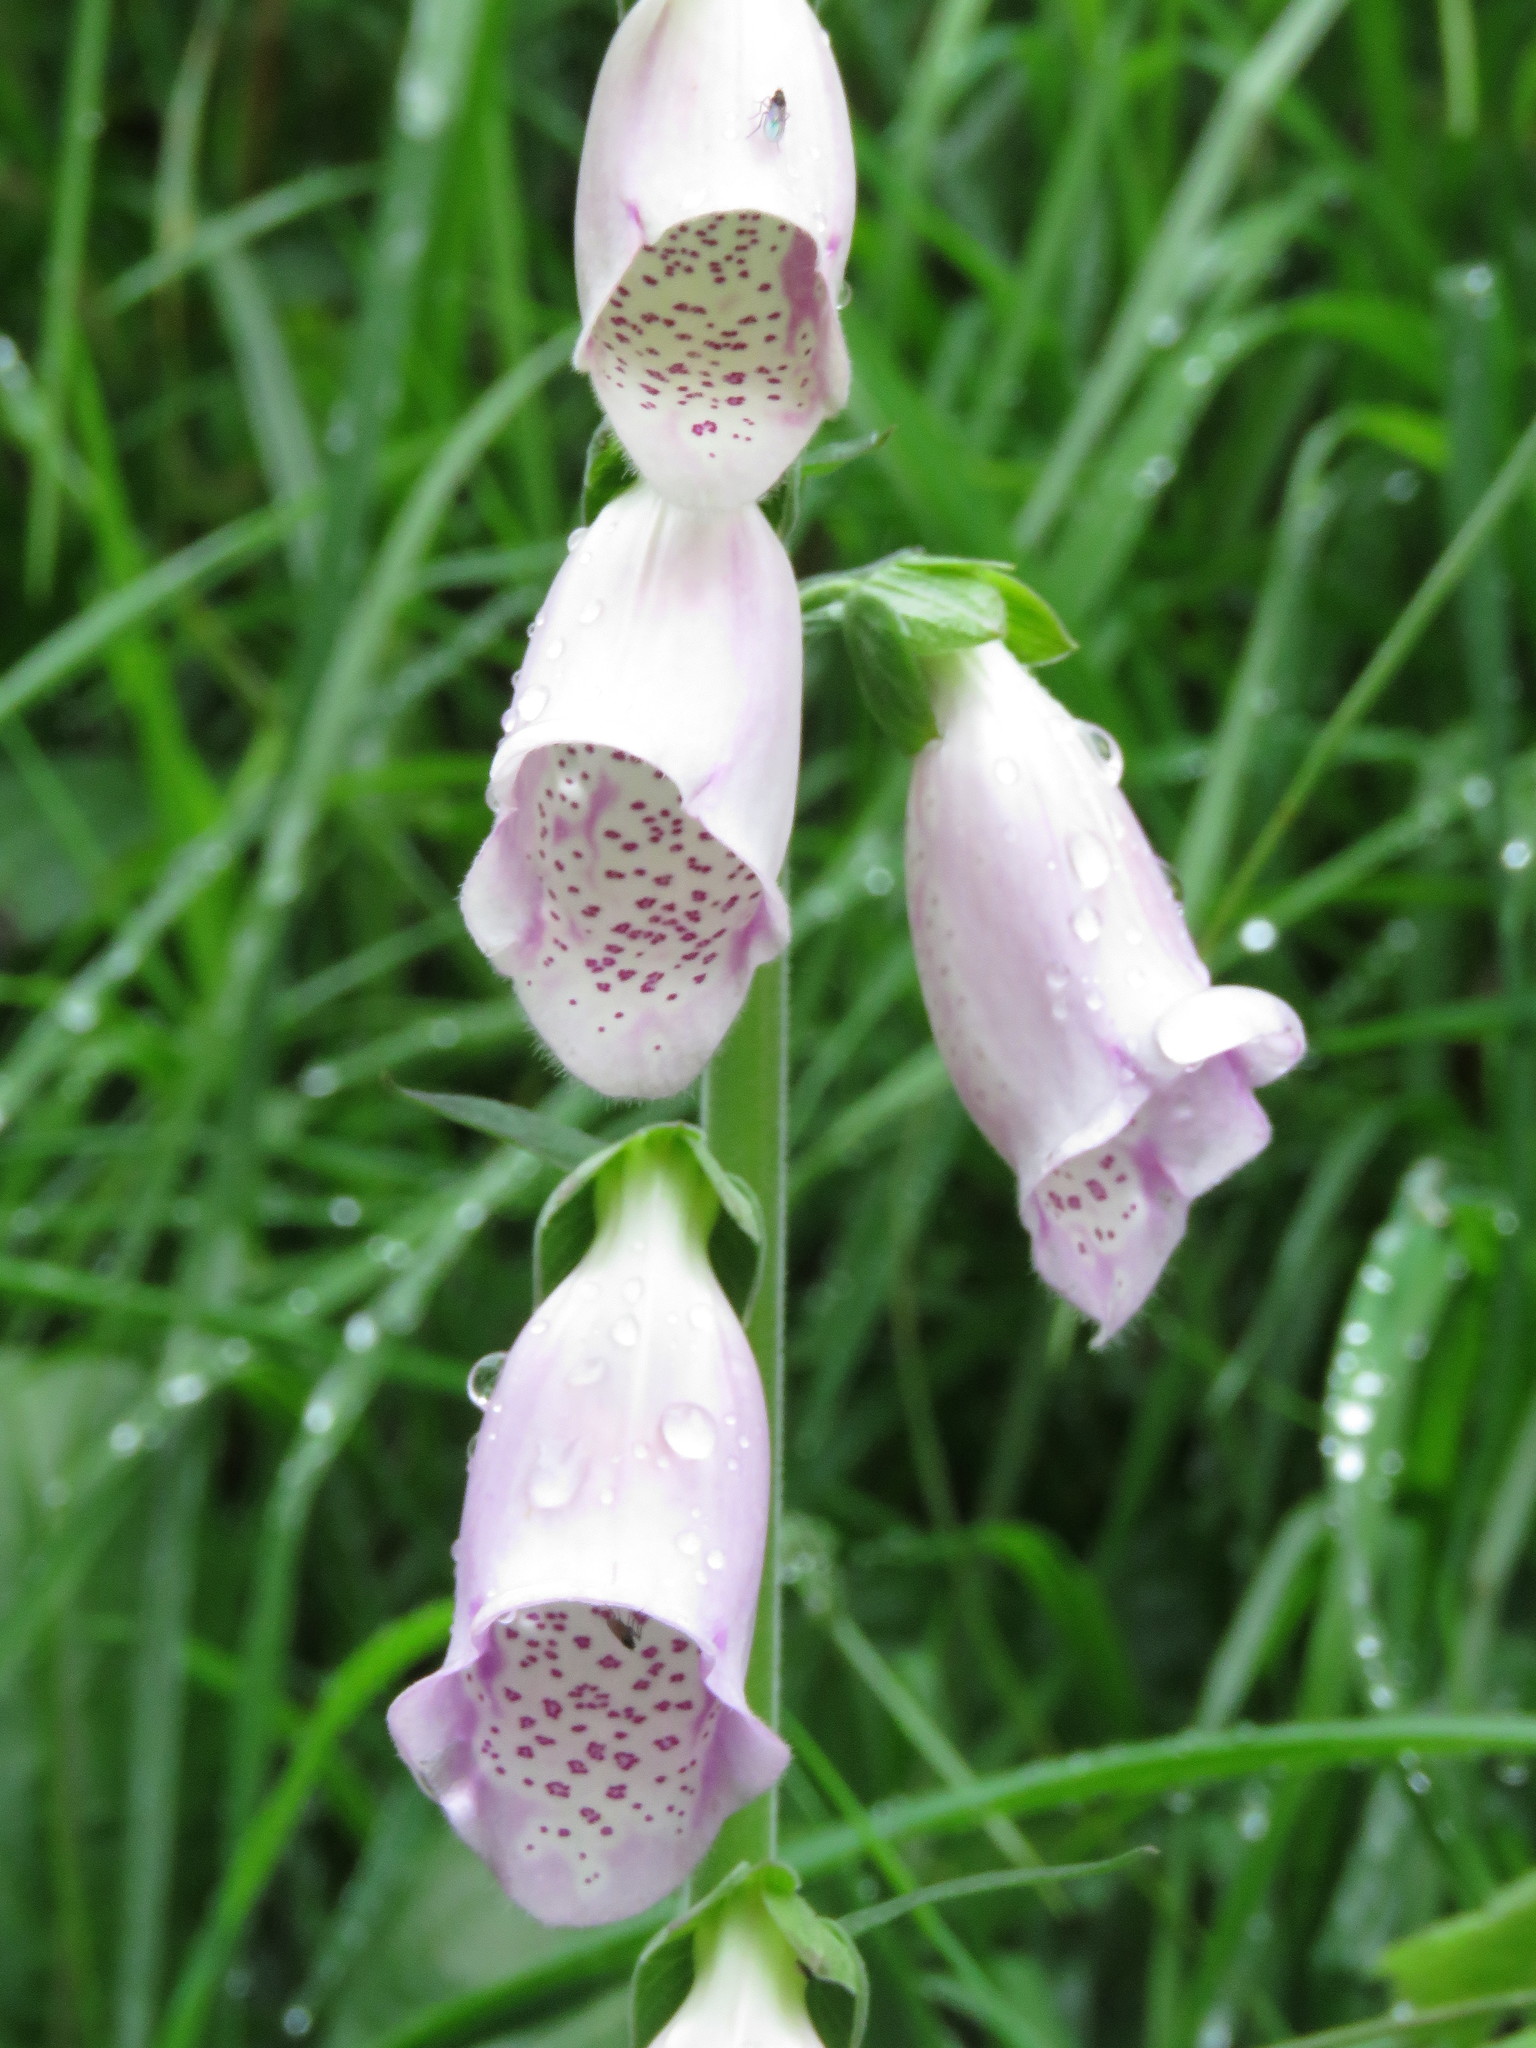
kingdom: Plantae
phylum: Tracheophyta
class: Magnoliopsida
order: Lamiales
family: Plantaginaceae
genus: Digitalis
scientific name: Digitalis purpurea
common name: Foxglove
